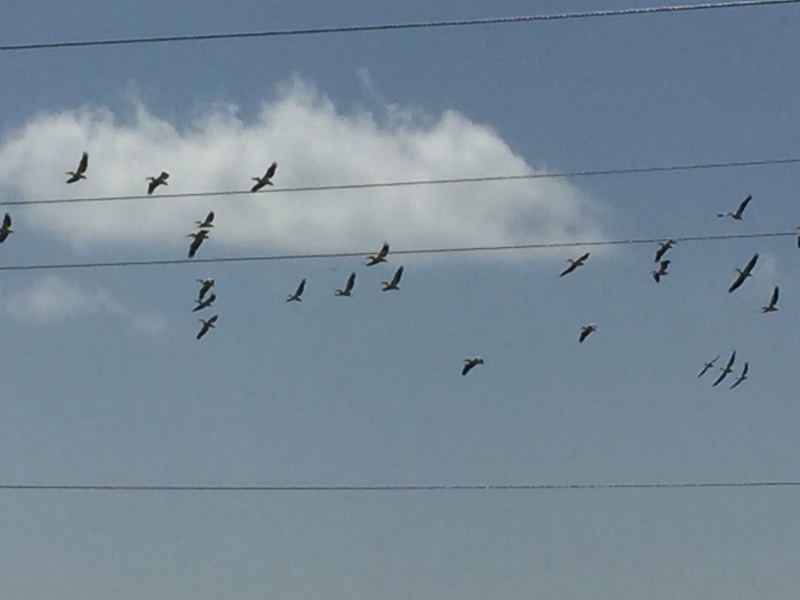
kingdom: Animalia
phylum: Chordata
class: Aves
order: Pelecaniformes
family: Pelecanidae
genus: Pelecanus
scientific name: Pelecanus onocrotalus
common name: Great white pelican
